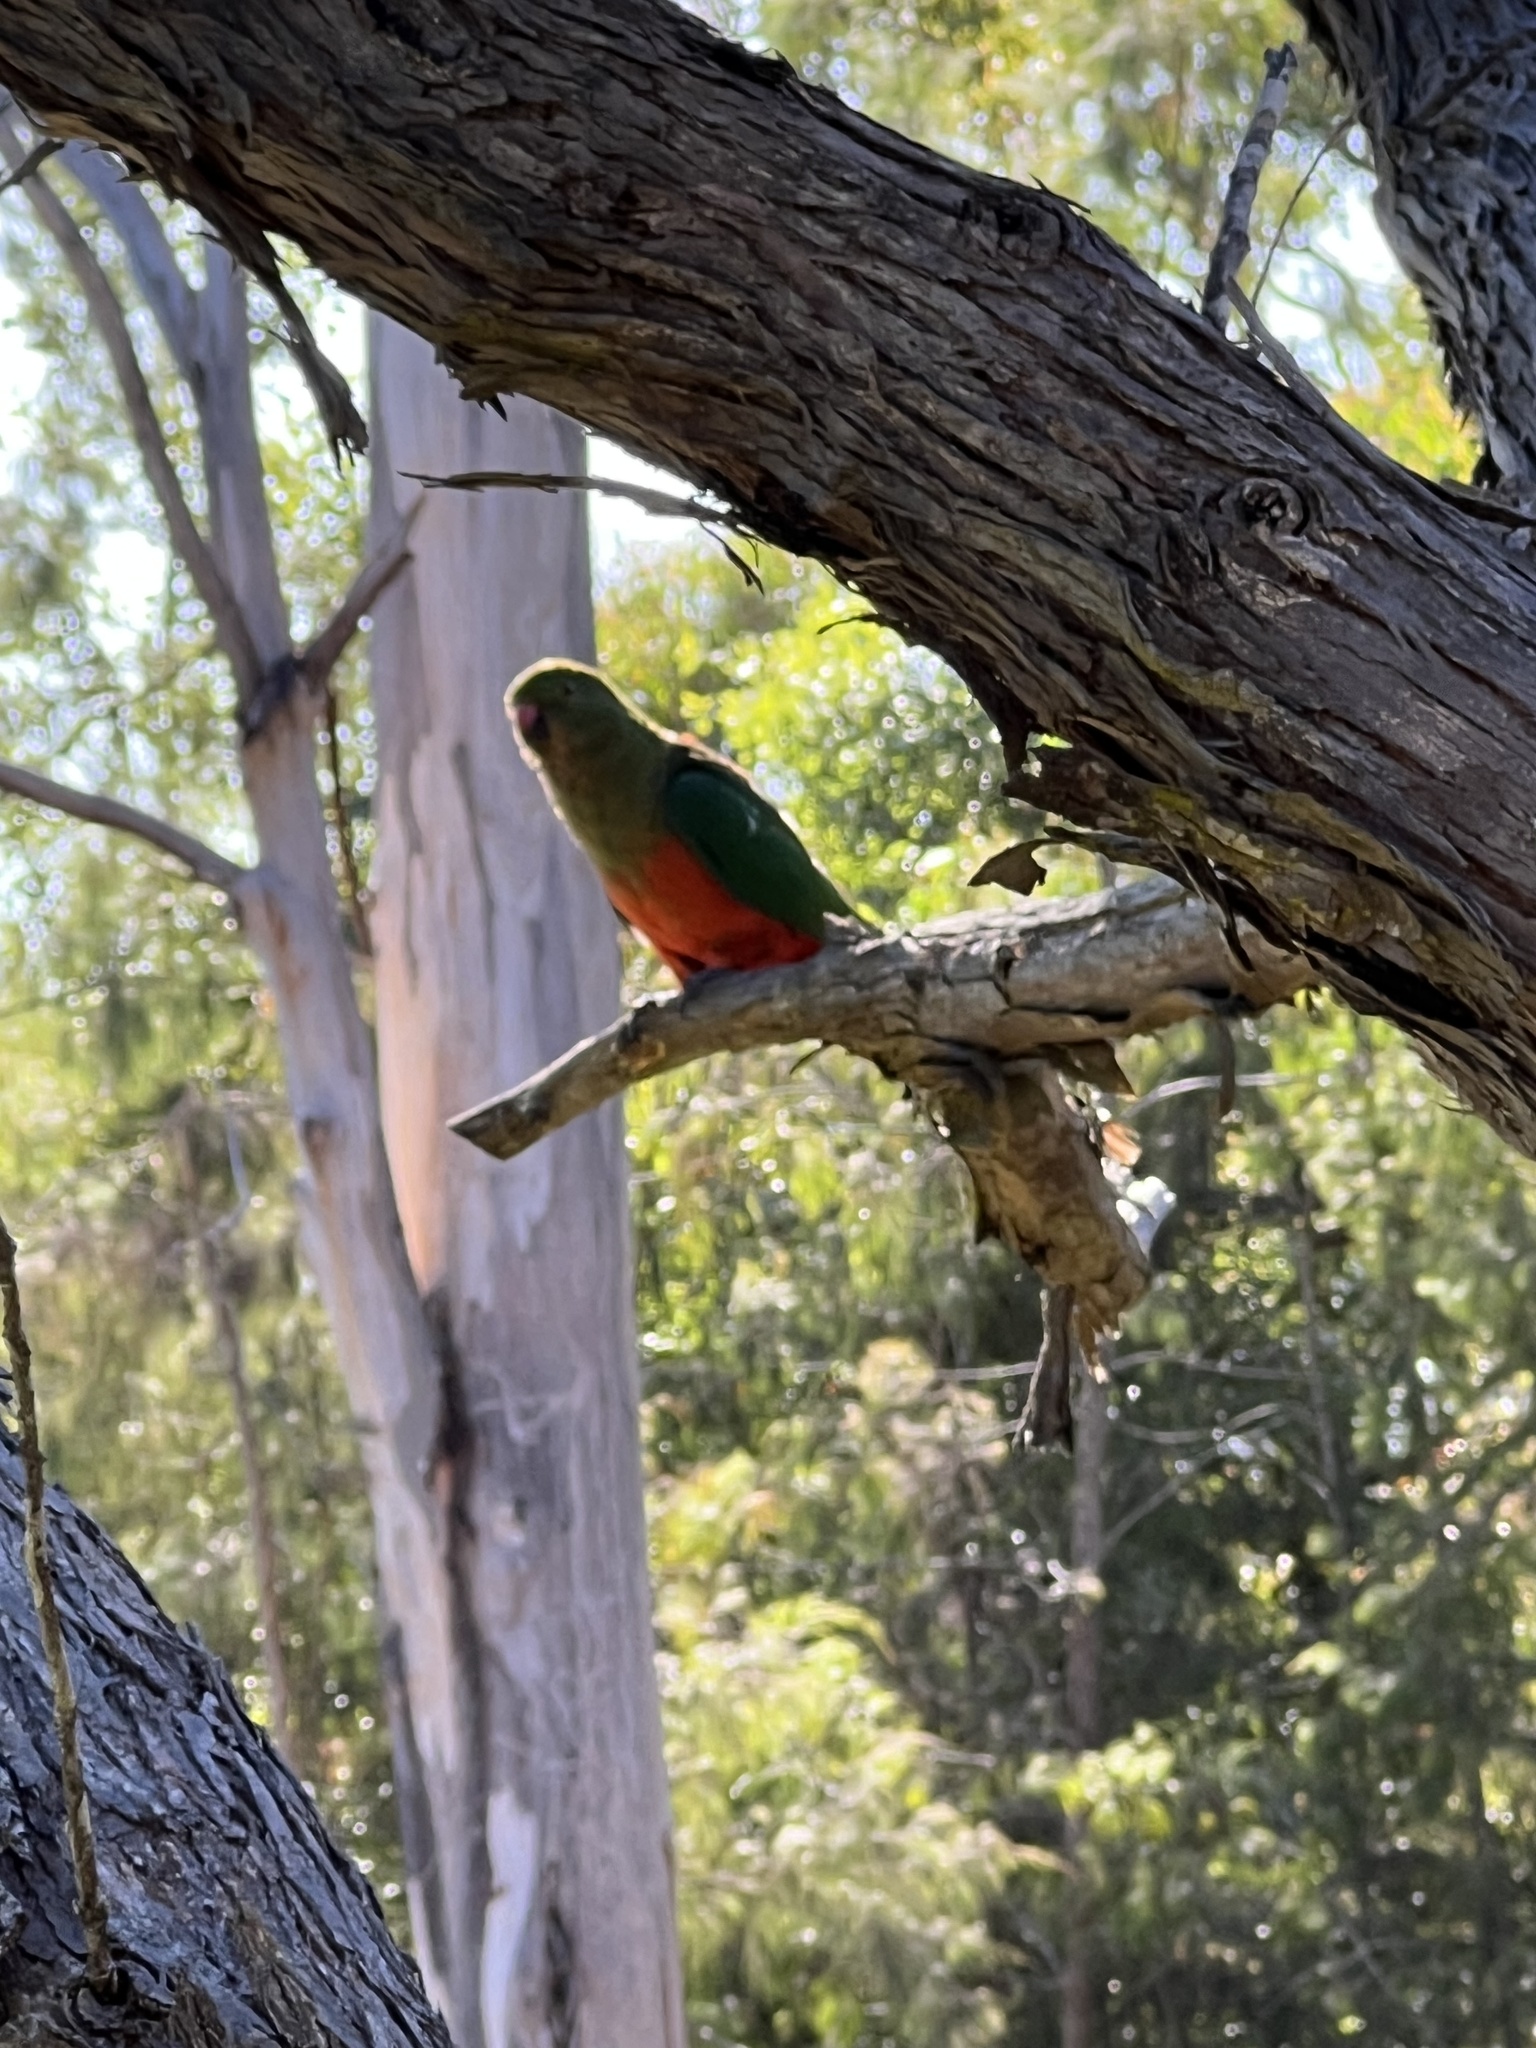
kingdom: Animalia
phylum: Chordata
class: Aves
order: Psittaciformes
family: Psittacidae
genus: Alisterus
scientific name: Alisterus scapularis
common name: Australian king parrot
